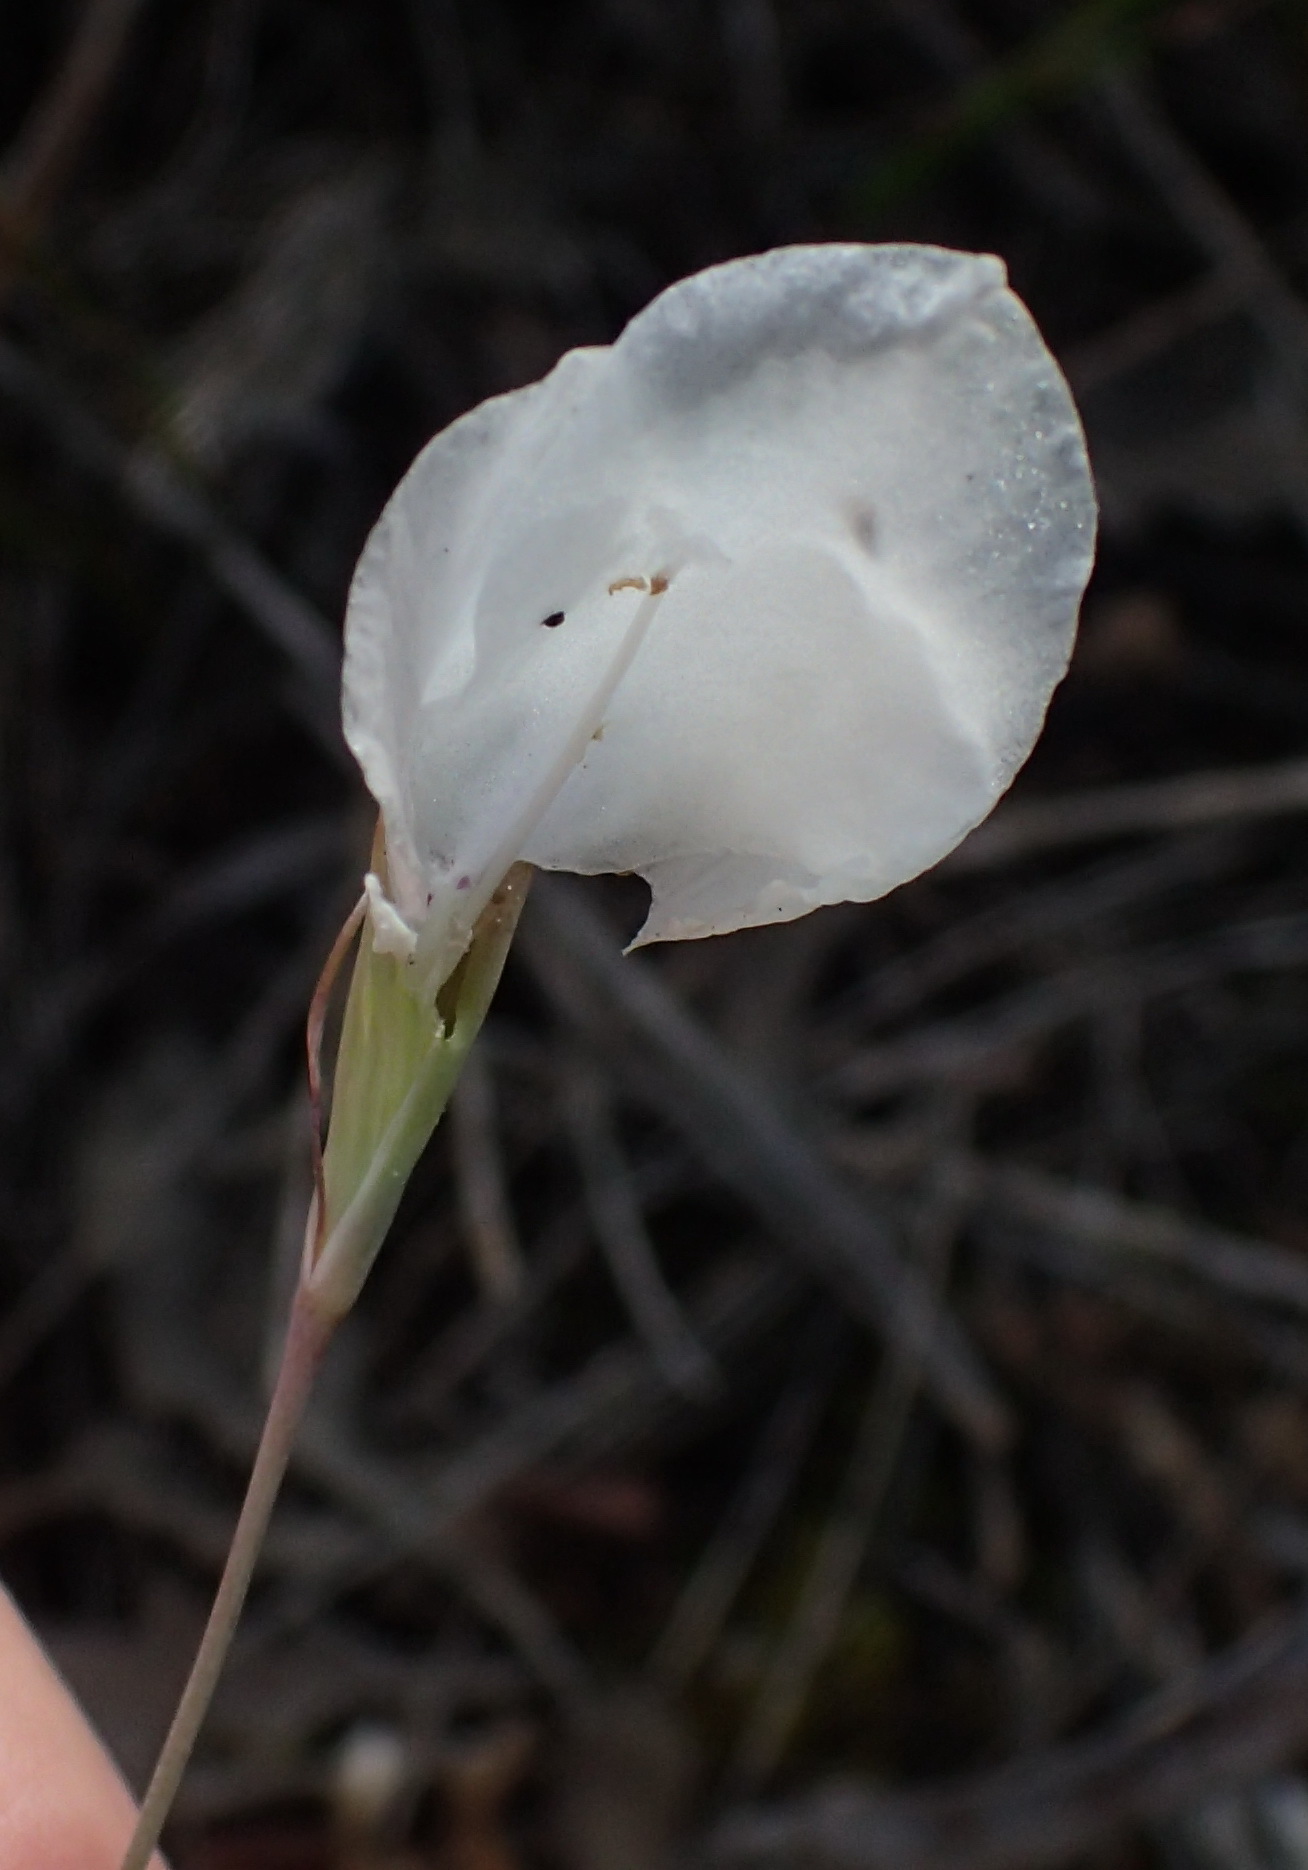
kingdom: Plantae
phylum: Tracheophyta
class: Liliopsida
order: Asparagales
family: Iridaceae
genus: Gladiolus
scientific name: Gladiolus vaginatus
